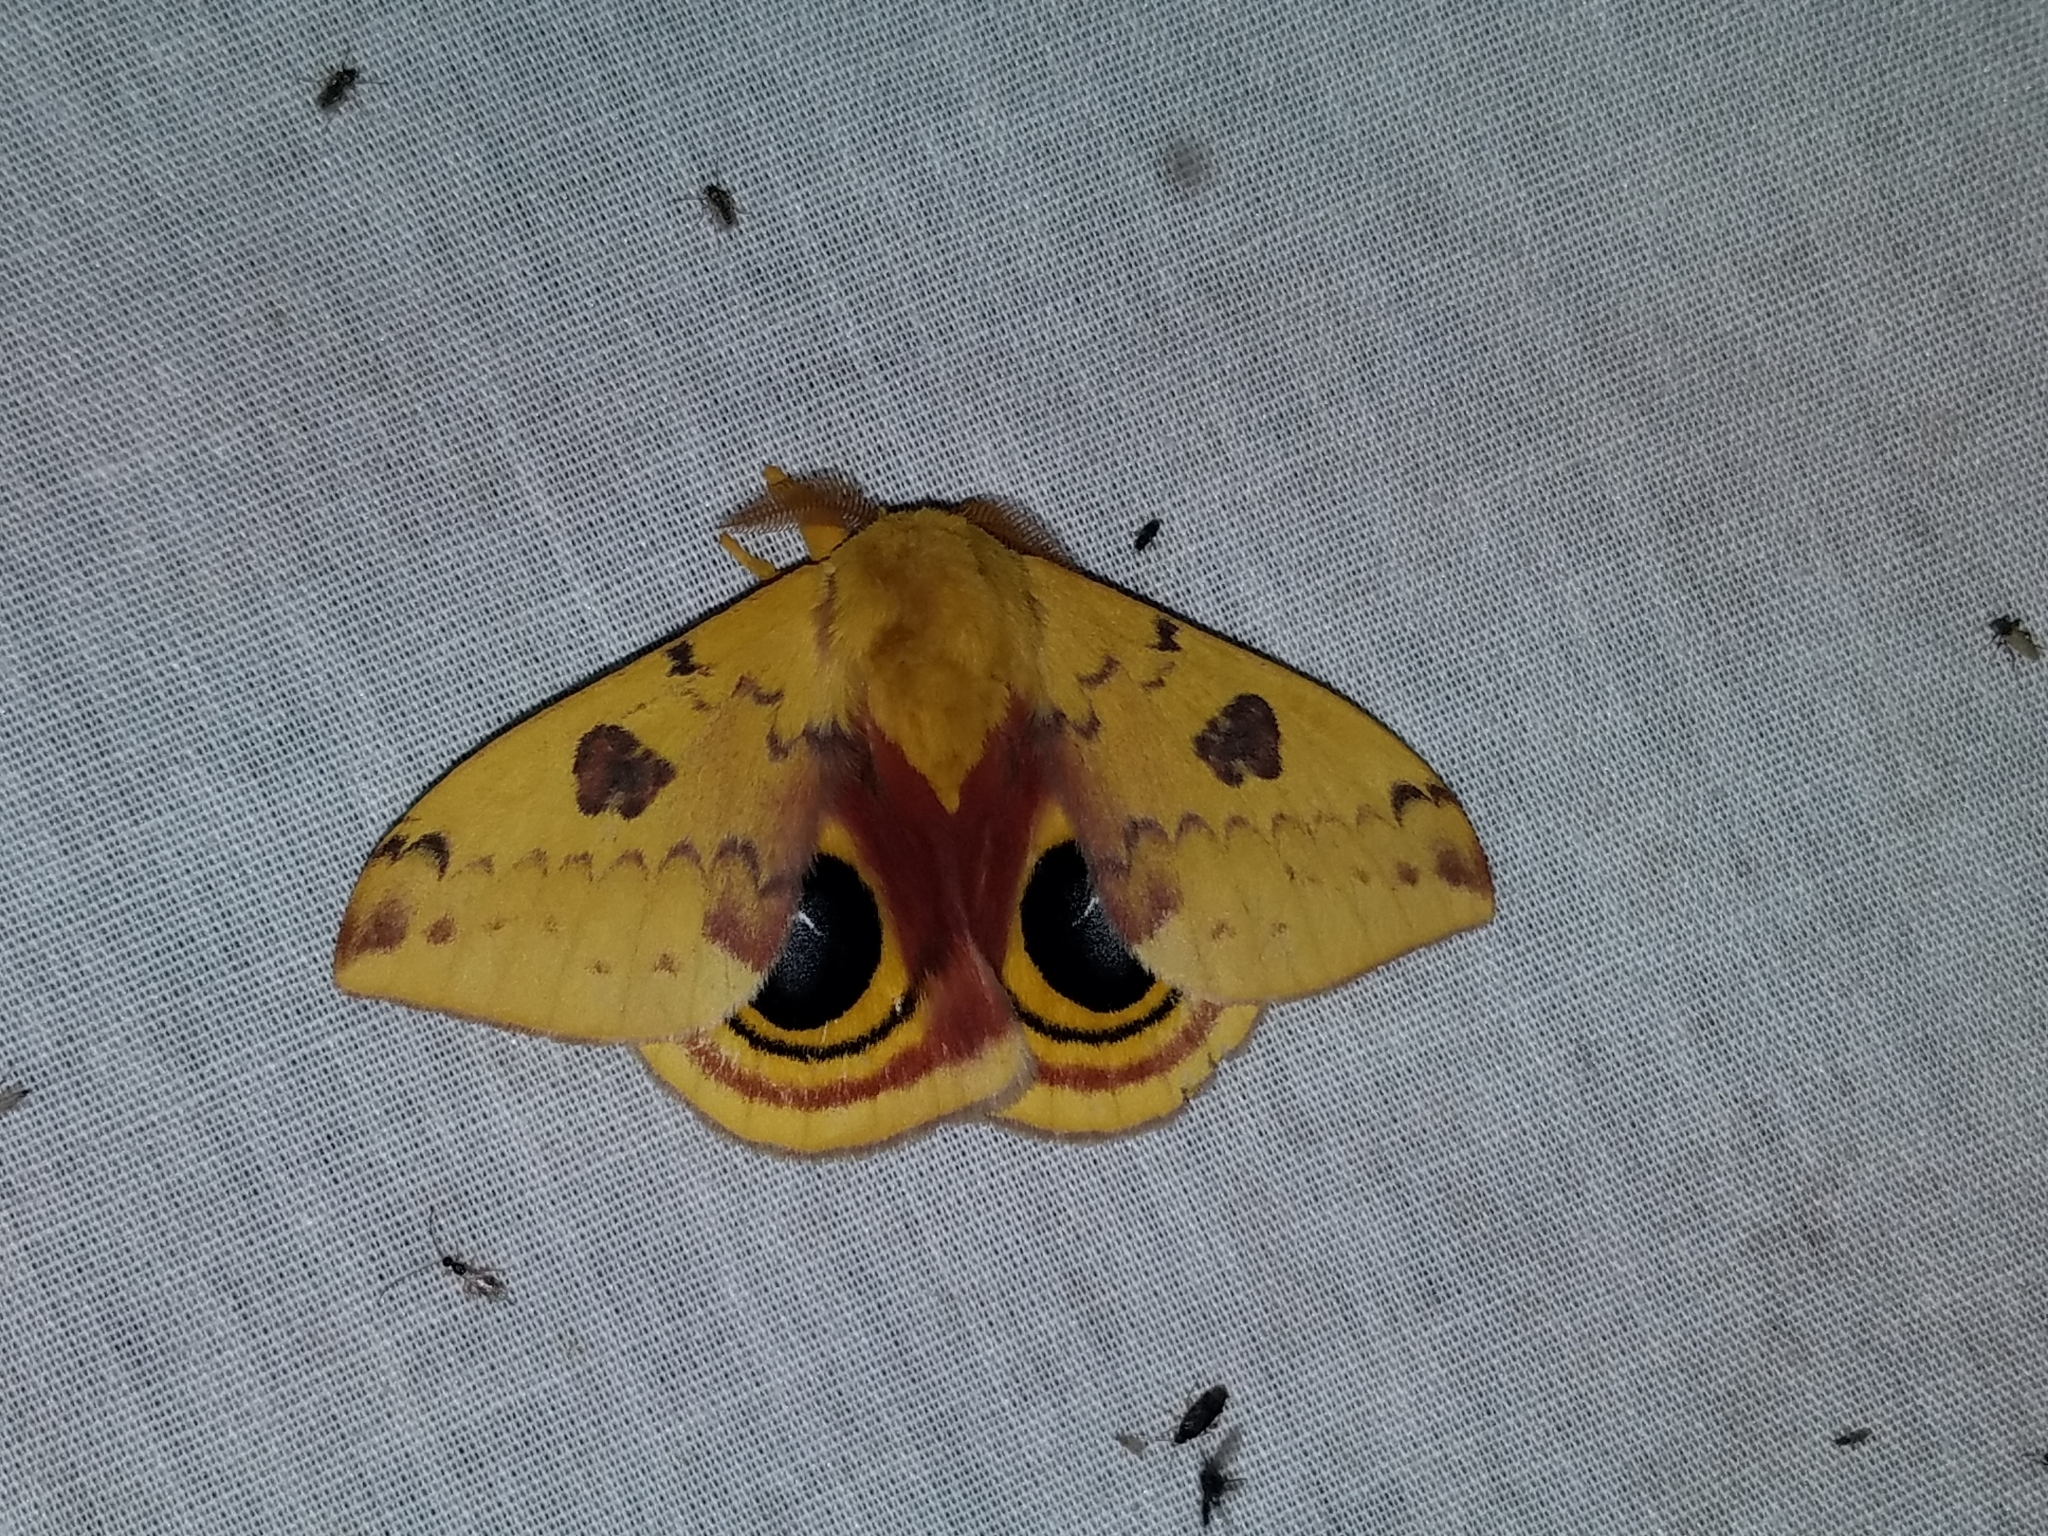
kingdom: Animalia
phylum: Arthropoda
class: Insecta
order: Lepidoptera
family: Saturniidae
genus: Automeris
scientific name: Automeris io
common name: Io moth
